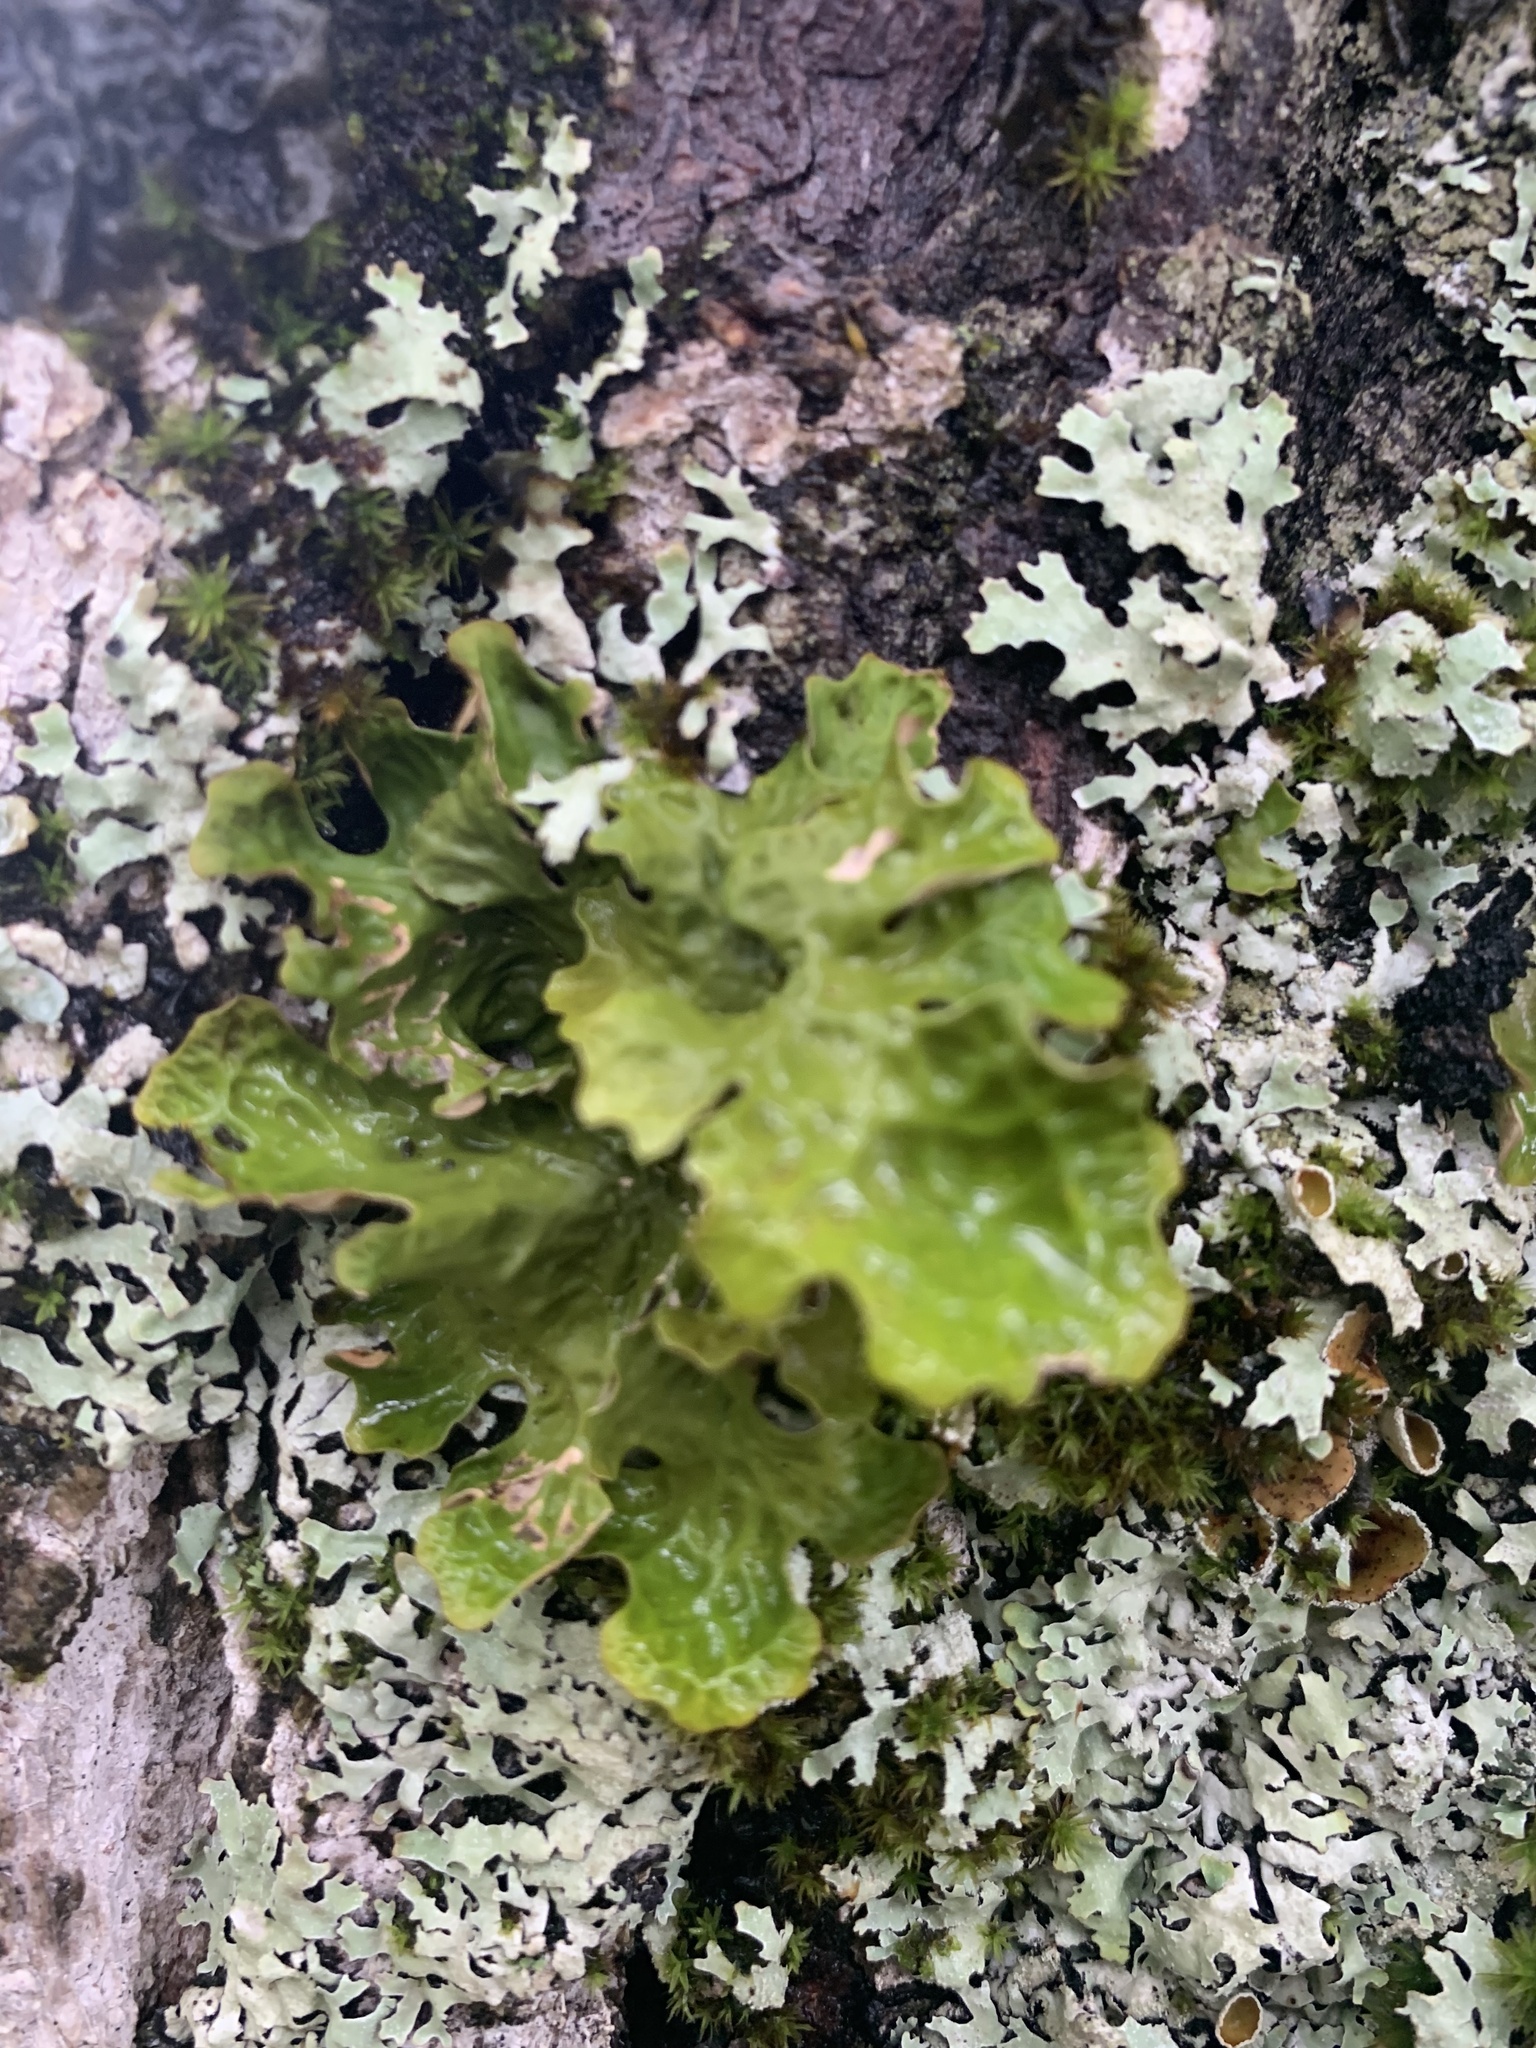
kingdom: Fungi
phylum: Ascomycota
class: Lecanoromycetes
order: Peltigerales
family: Lobariaceae
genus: Ricasolia
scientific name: Ricasolia quercizans
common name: Smooth lungwort
